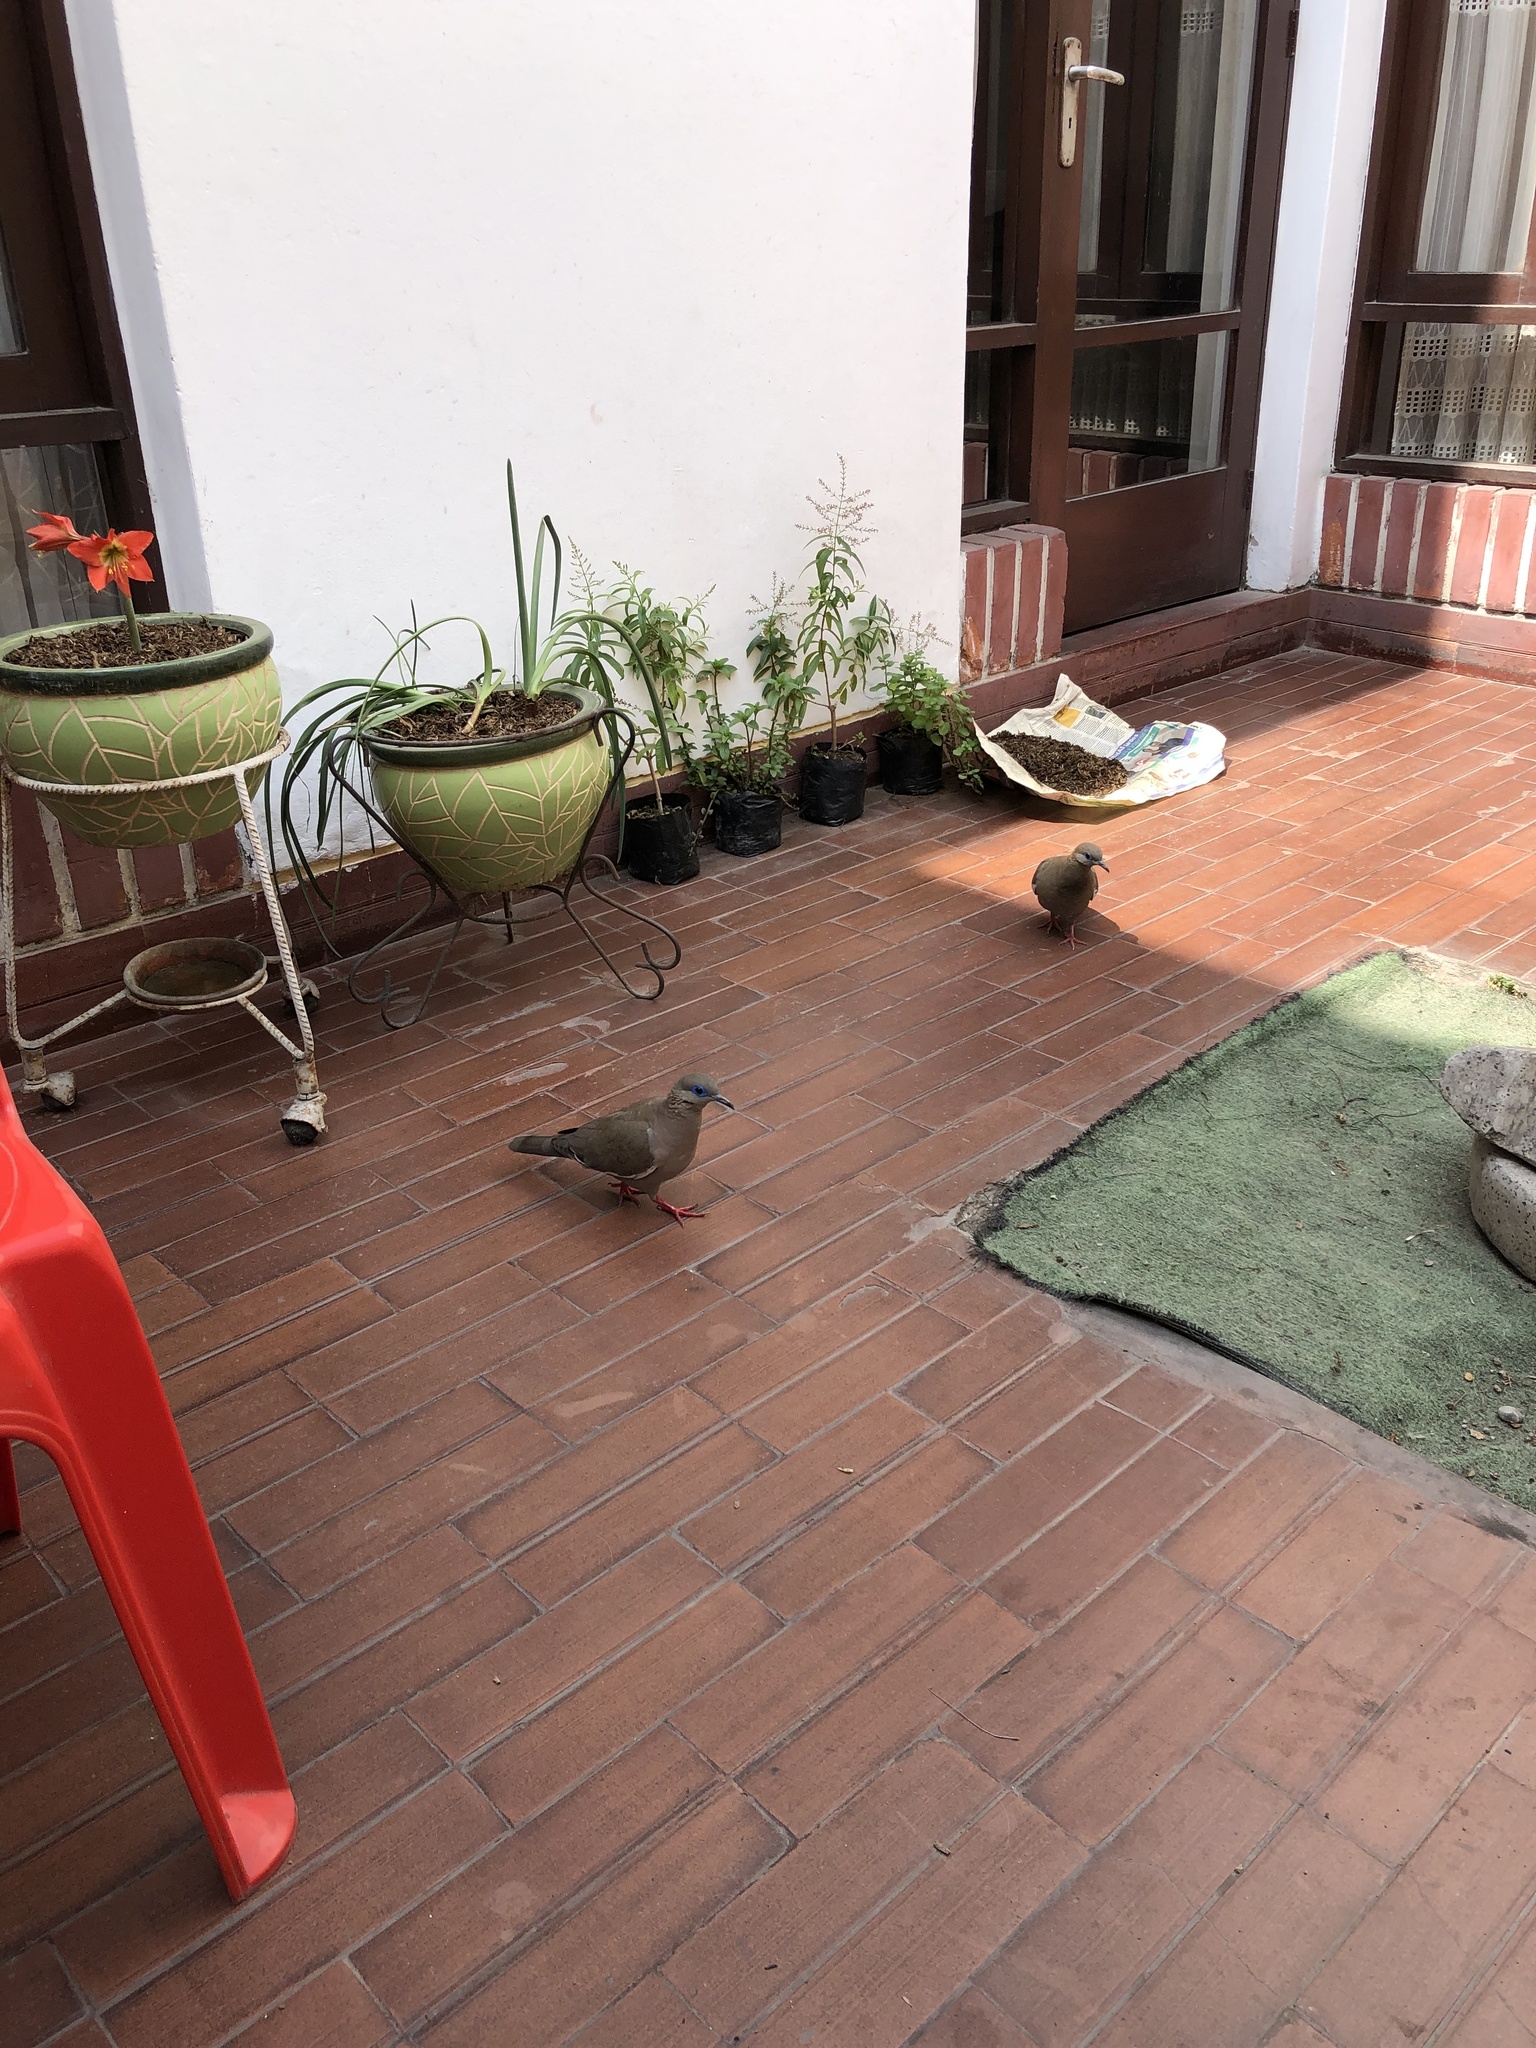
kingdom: Animalia
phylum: Chordata
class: Aves
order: Columbiformes
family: Columbidae
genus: Zenaida
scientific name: Zenaida meloda
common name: West peruvian dove
